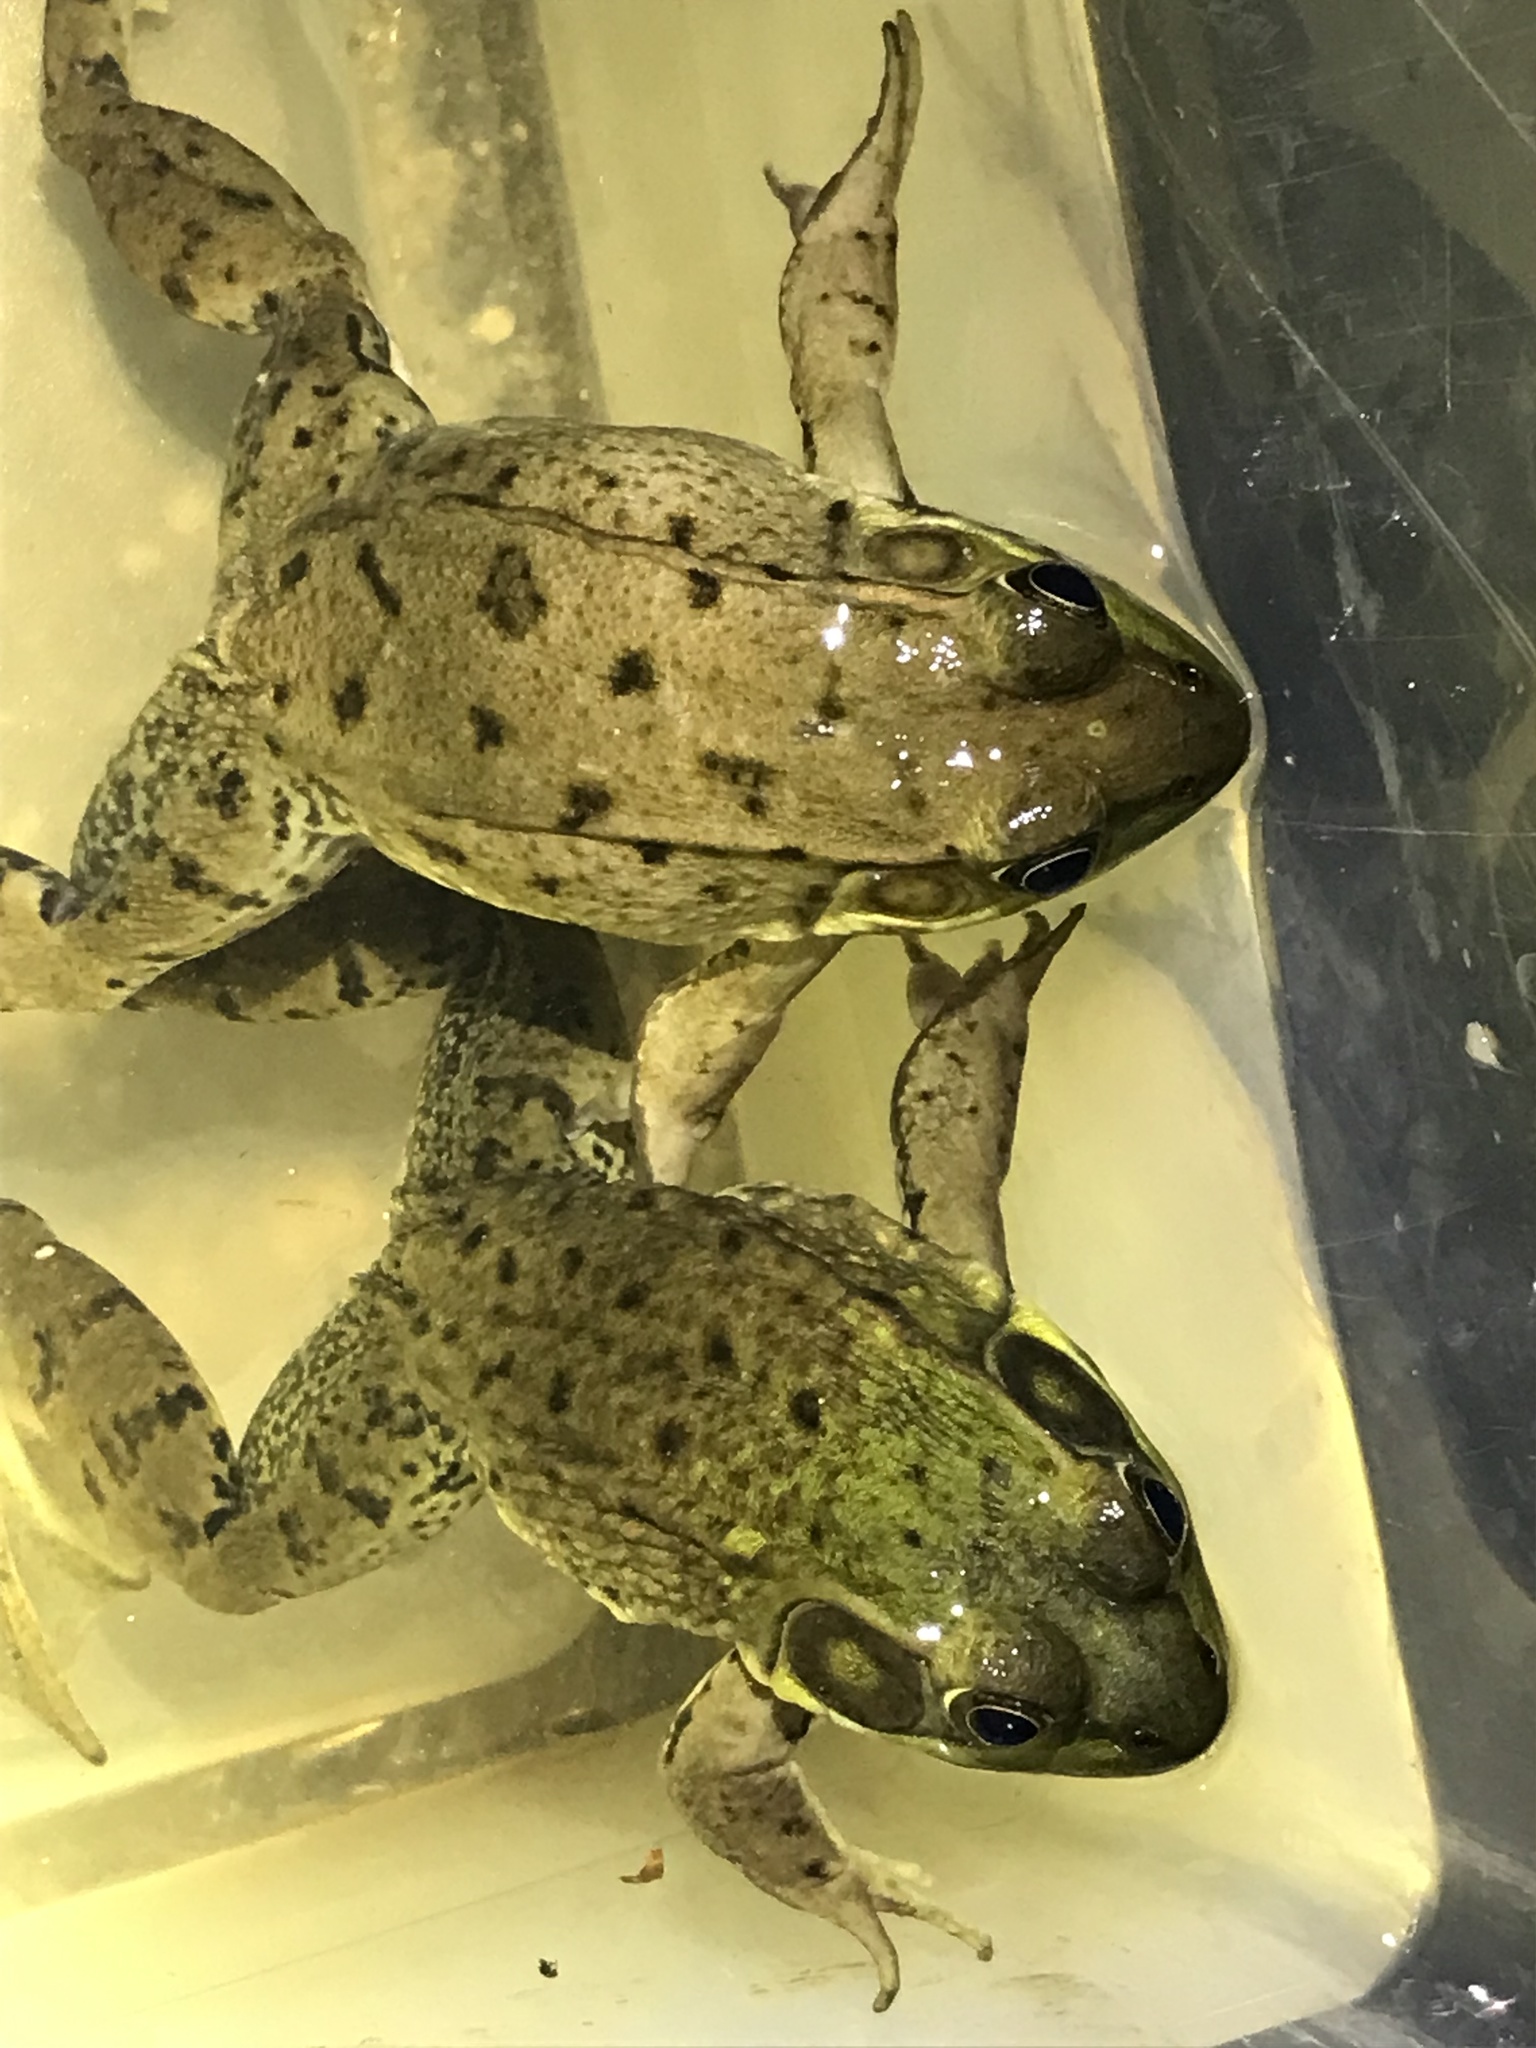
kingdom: Animalia
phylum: Chordata
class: Amphibia
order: Anura
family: Ranidae
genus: Lithobates
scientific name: Lithobates clamitans
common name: Green frog
